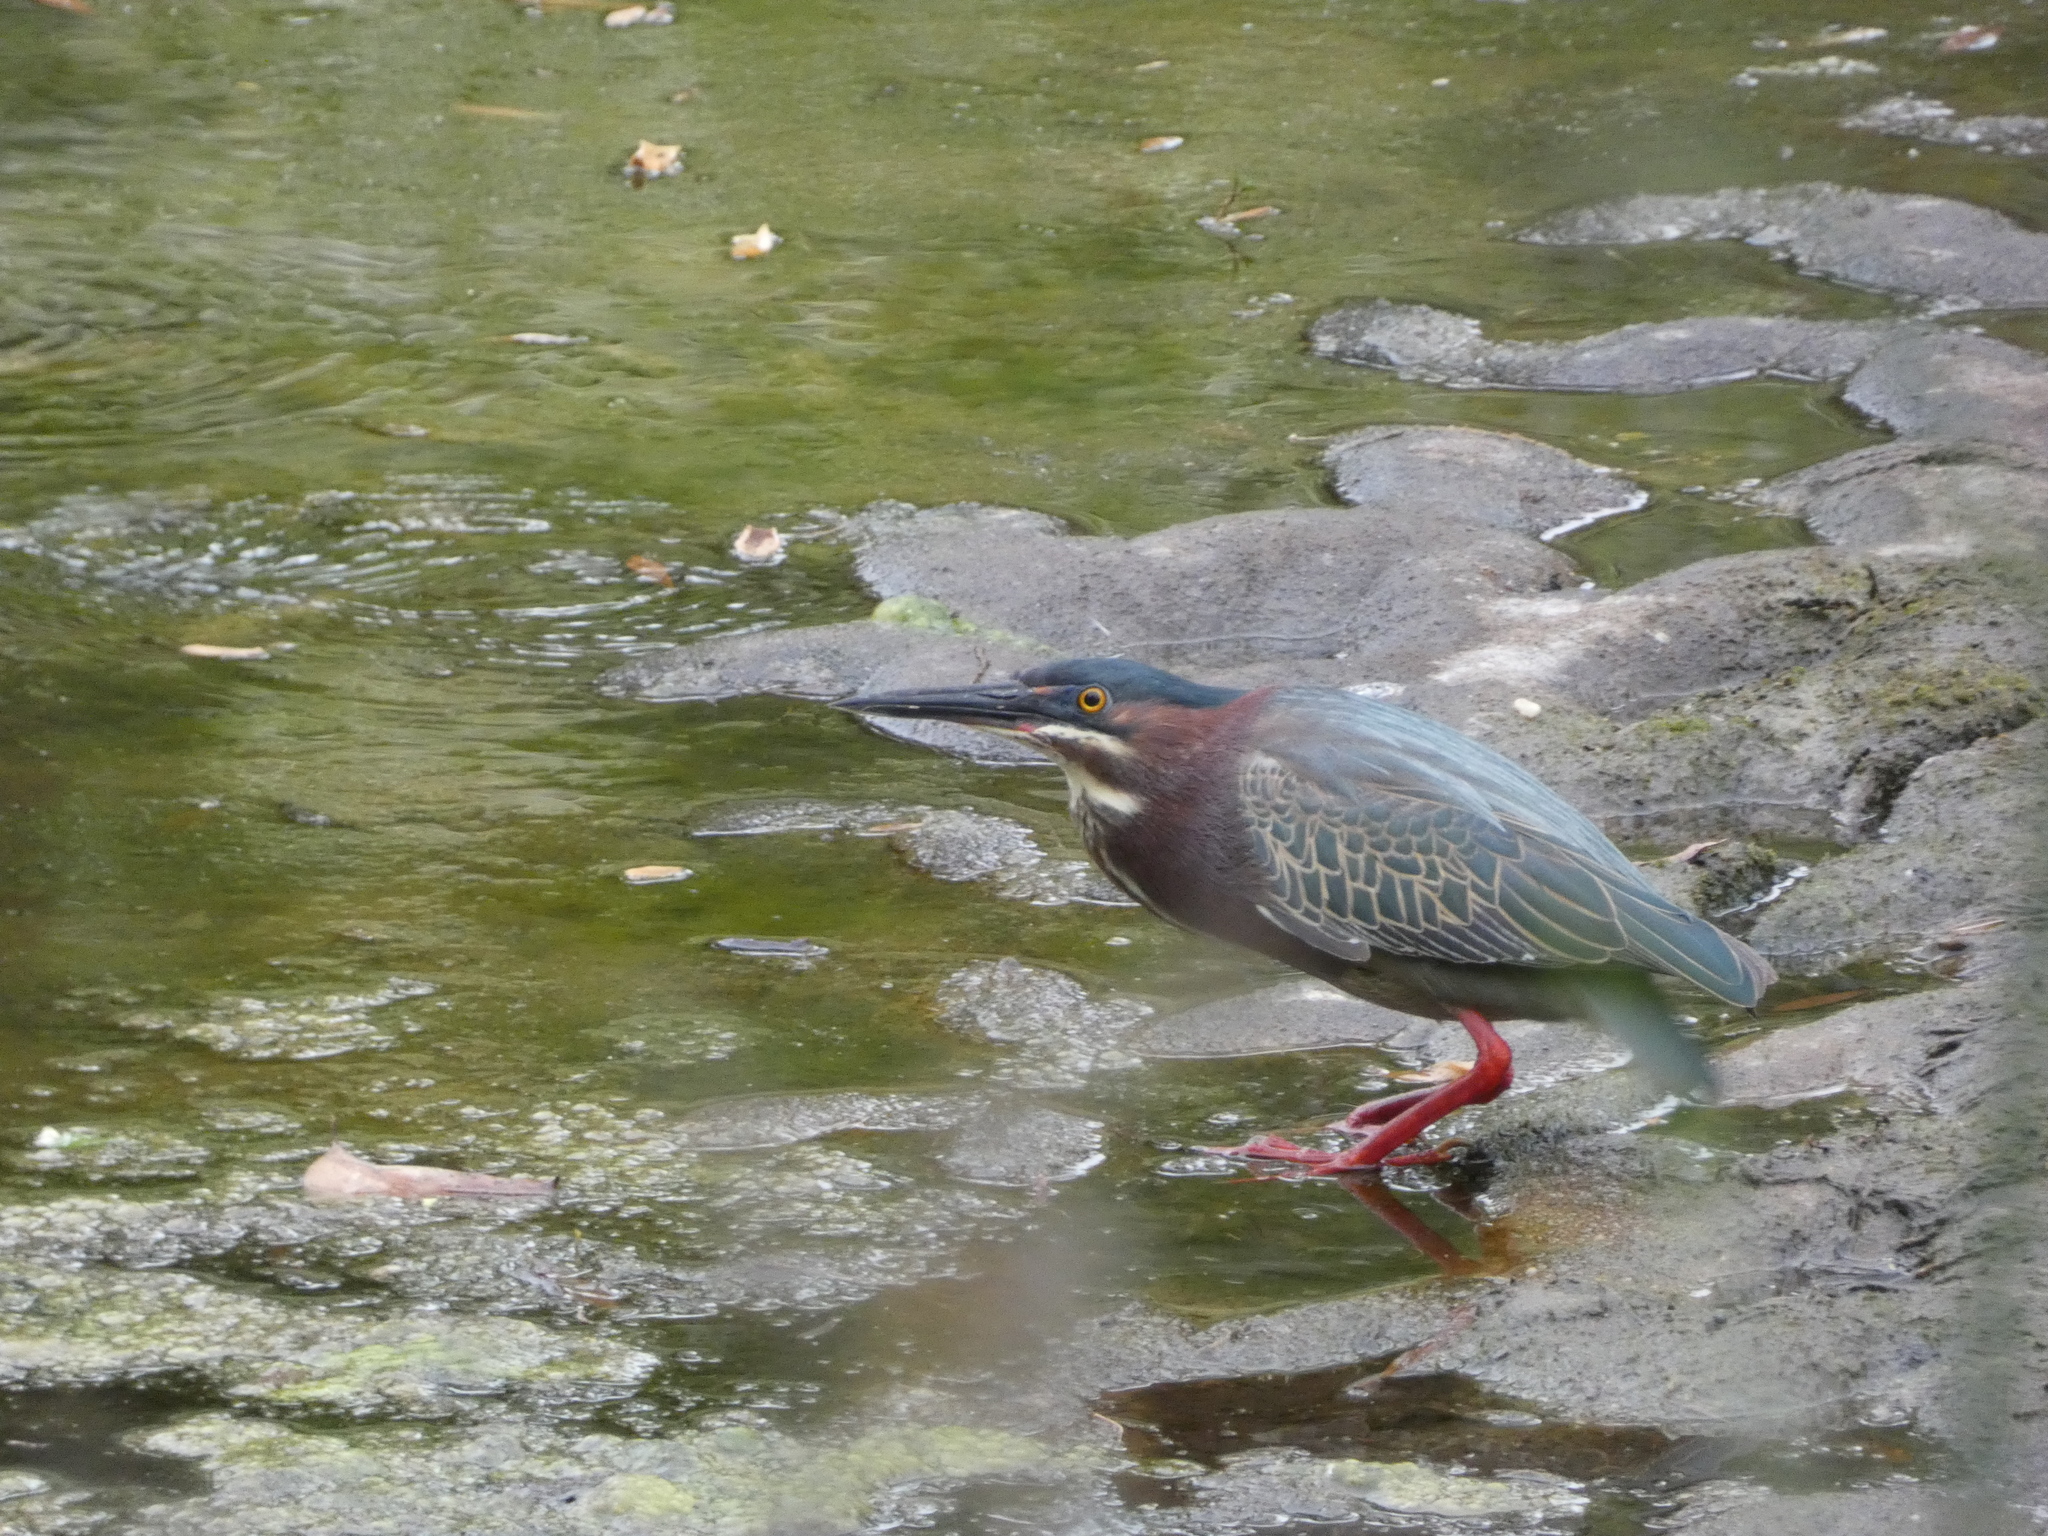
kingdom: Animalia
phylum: Chordata
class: Aves
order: Pelecaniformes
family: Ardeidae
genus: Butorides
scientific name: Butorides virescens
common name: Green heron
